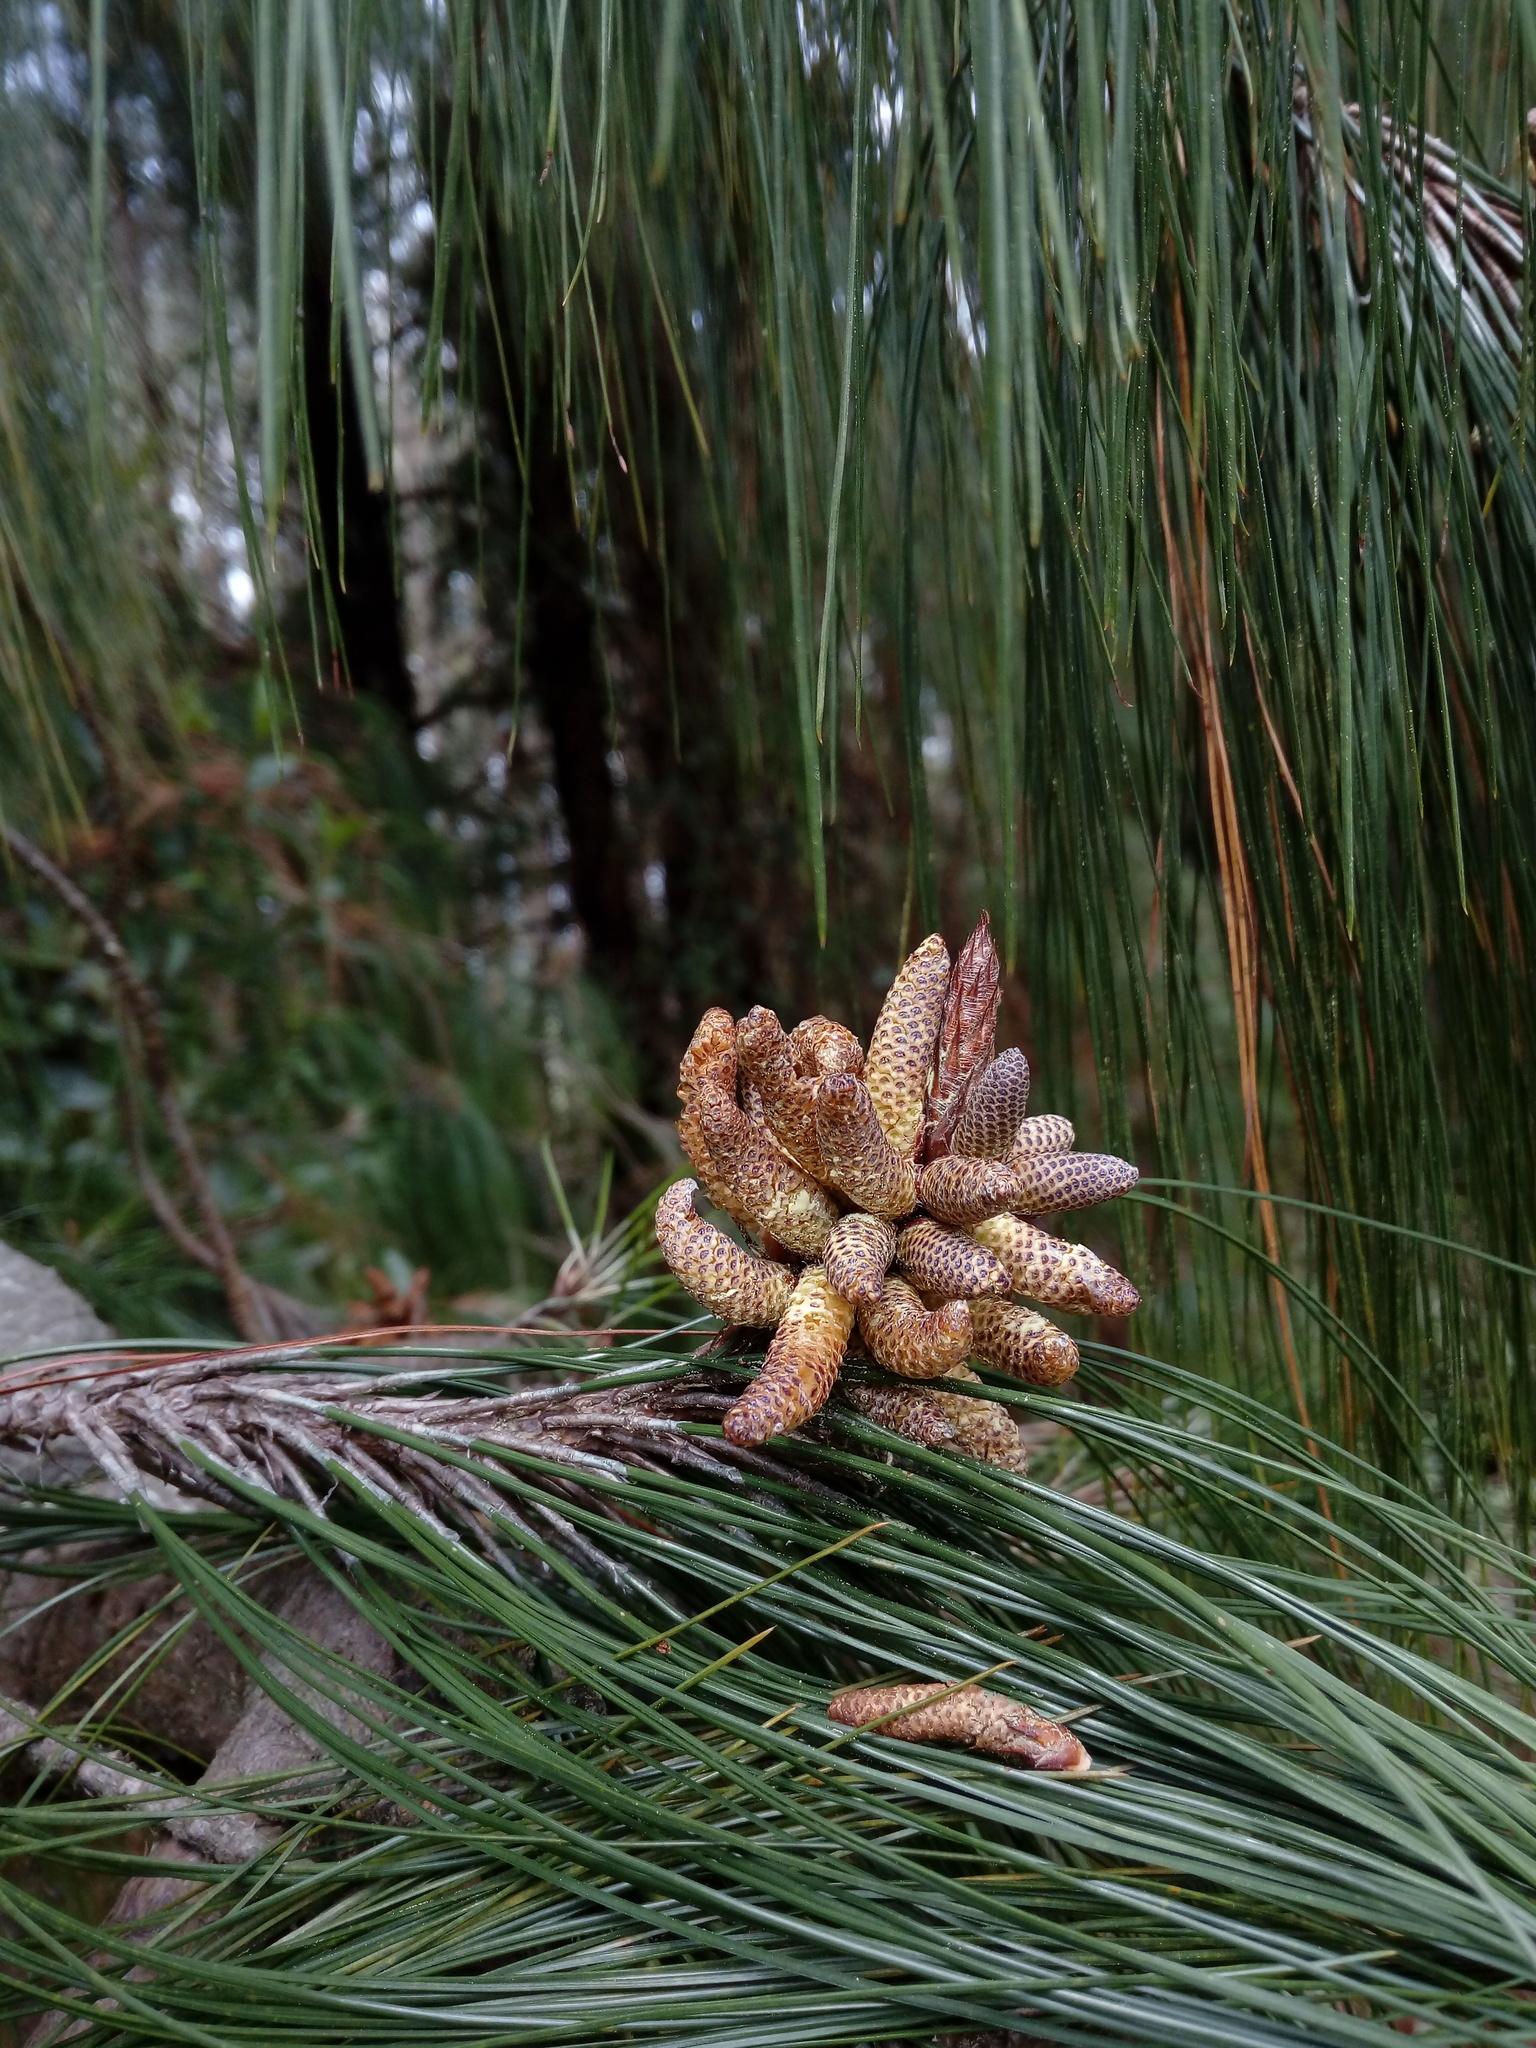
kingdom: Plantae
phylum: Tracheophyta
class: Pinopsida
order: Pinales
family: Pinaceae
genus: Pinus
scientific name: Pinus patula
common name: Mexican weeping pine
